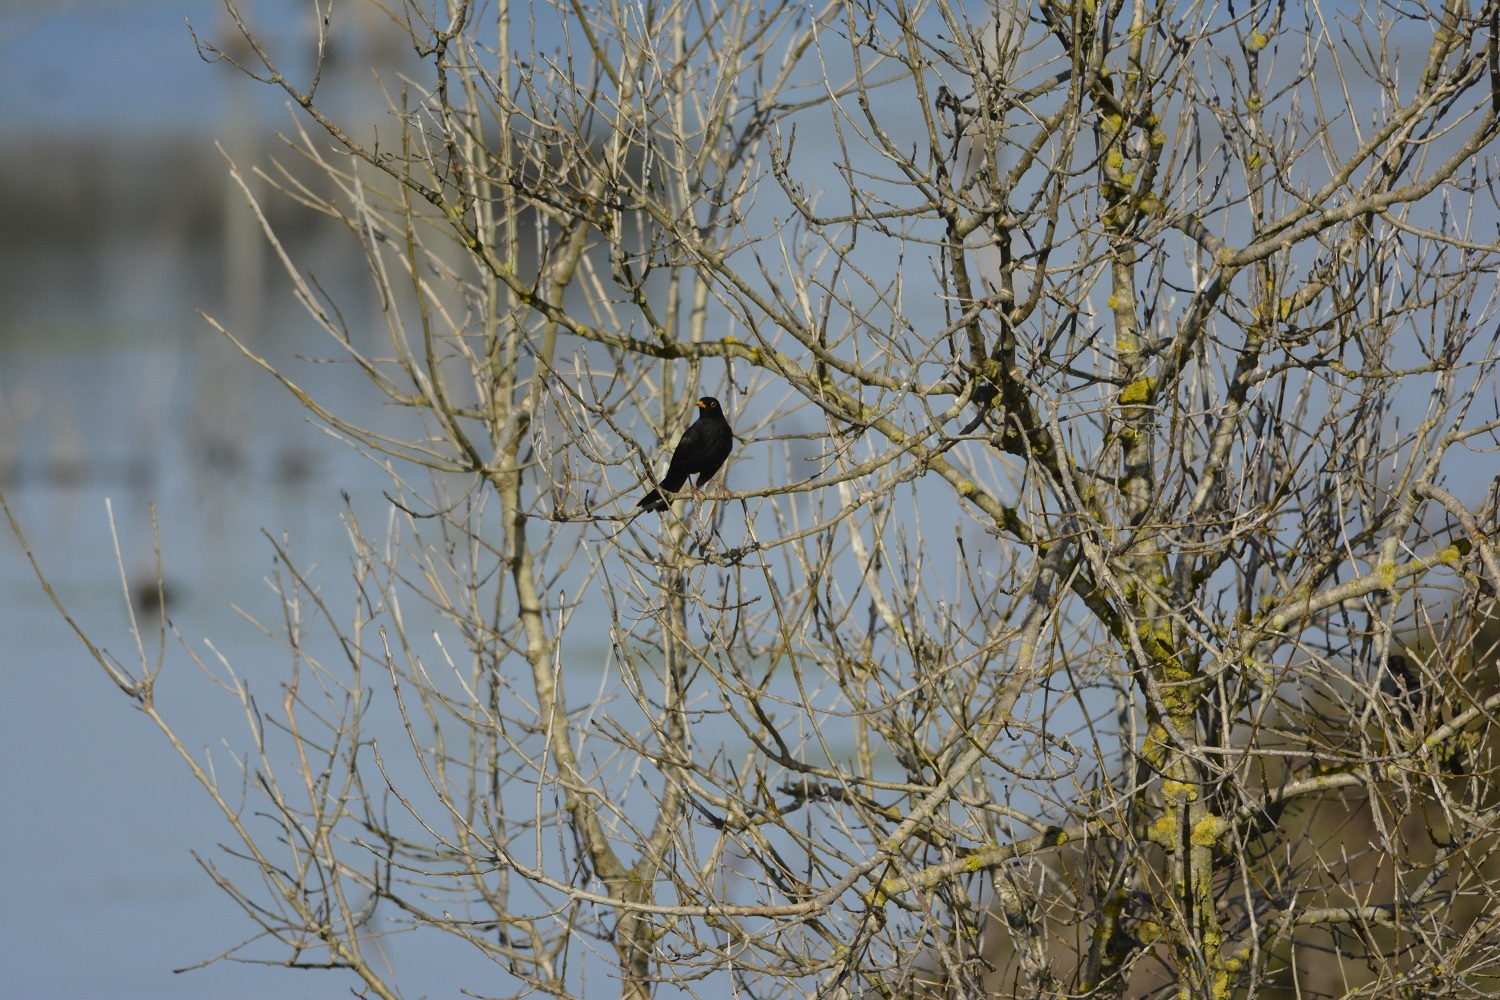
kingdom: Animalia
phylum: Chordata
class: Aves
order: Passeriformes
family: Turdidae
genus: Turdus
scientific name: Turdus merula
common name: Common blackbird
